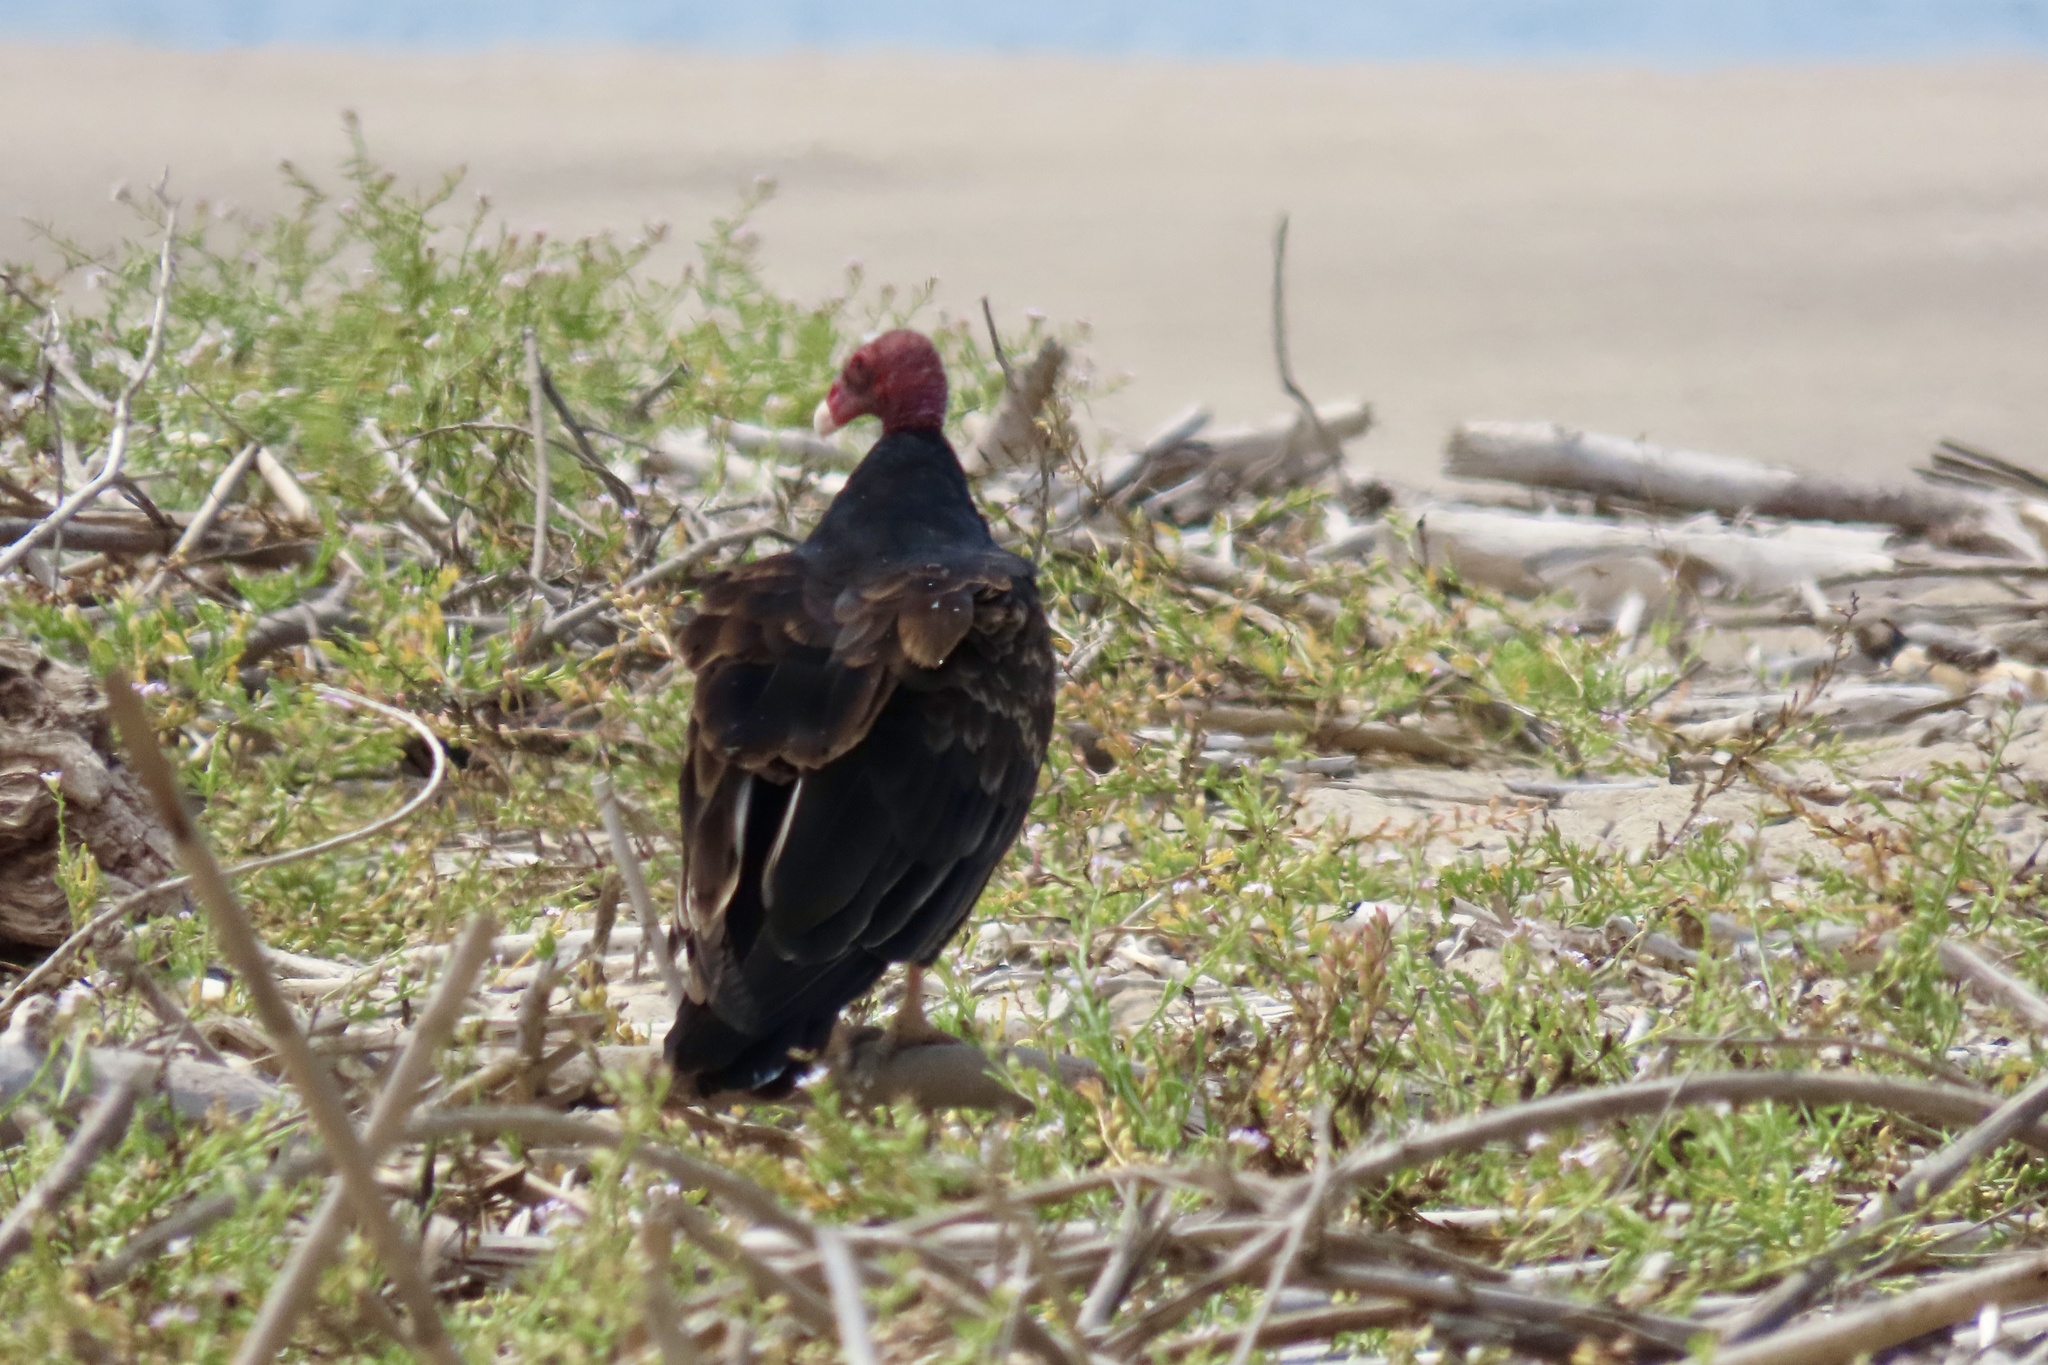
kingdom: Animalia
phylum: Chordata
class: Aves
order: Accipitriformes
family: Cathartidae
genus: Cathartes
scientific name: Cathartes aura
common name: Turkey vulture
